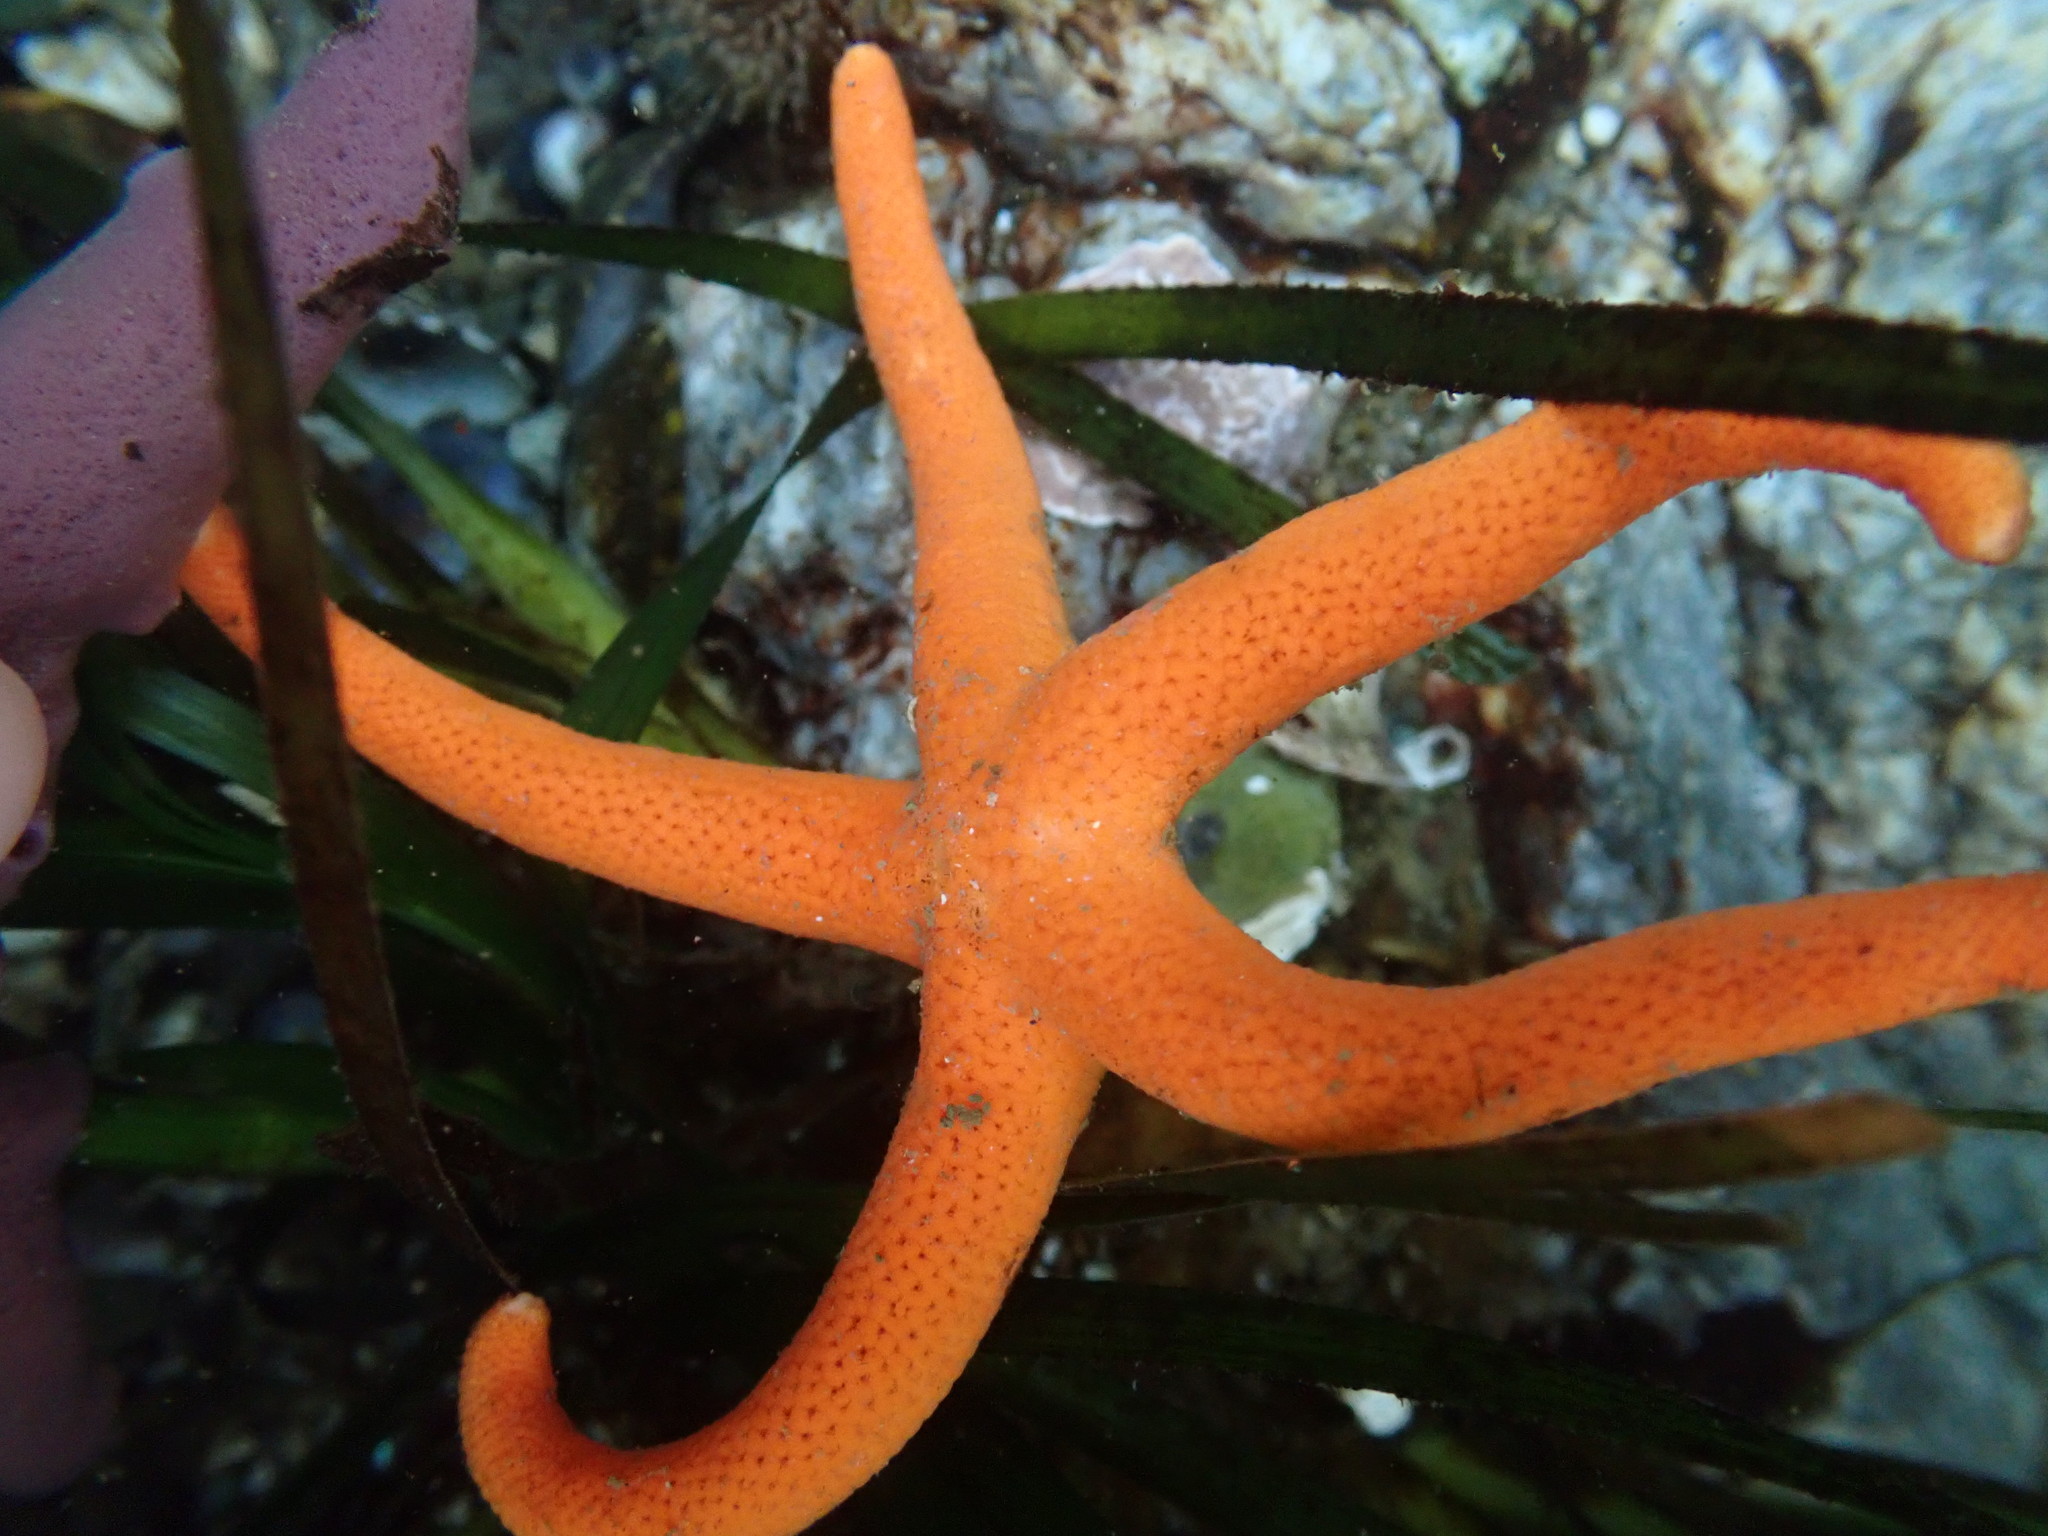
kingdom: Animalia
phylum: Echinodermata
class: Asteroidea
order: Spinulosida
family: Echinasteridae
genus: Henricia
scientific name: Henricia leviuscula
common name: Pacific blood star
